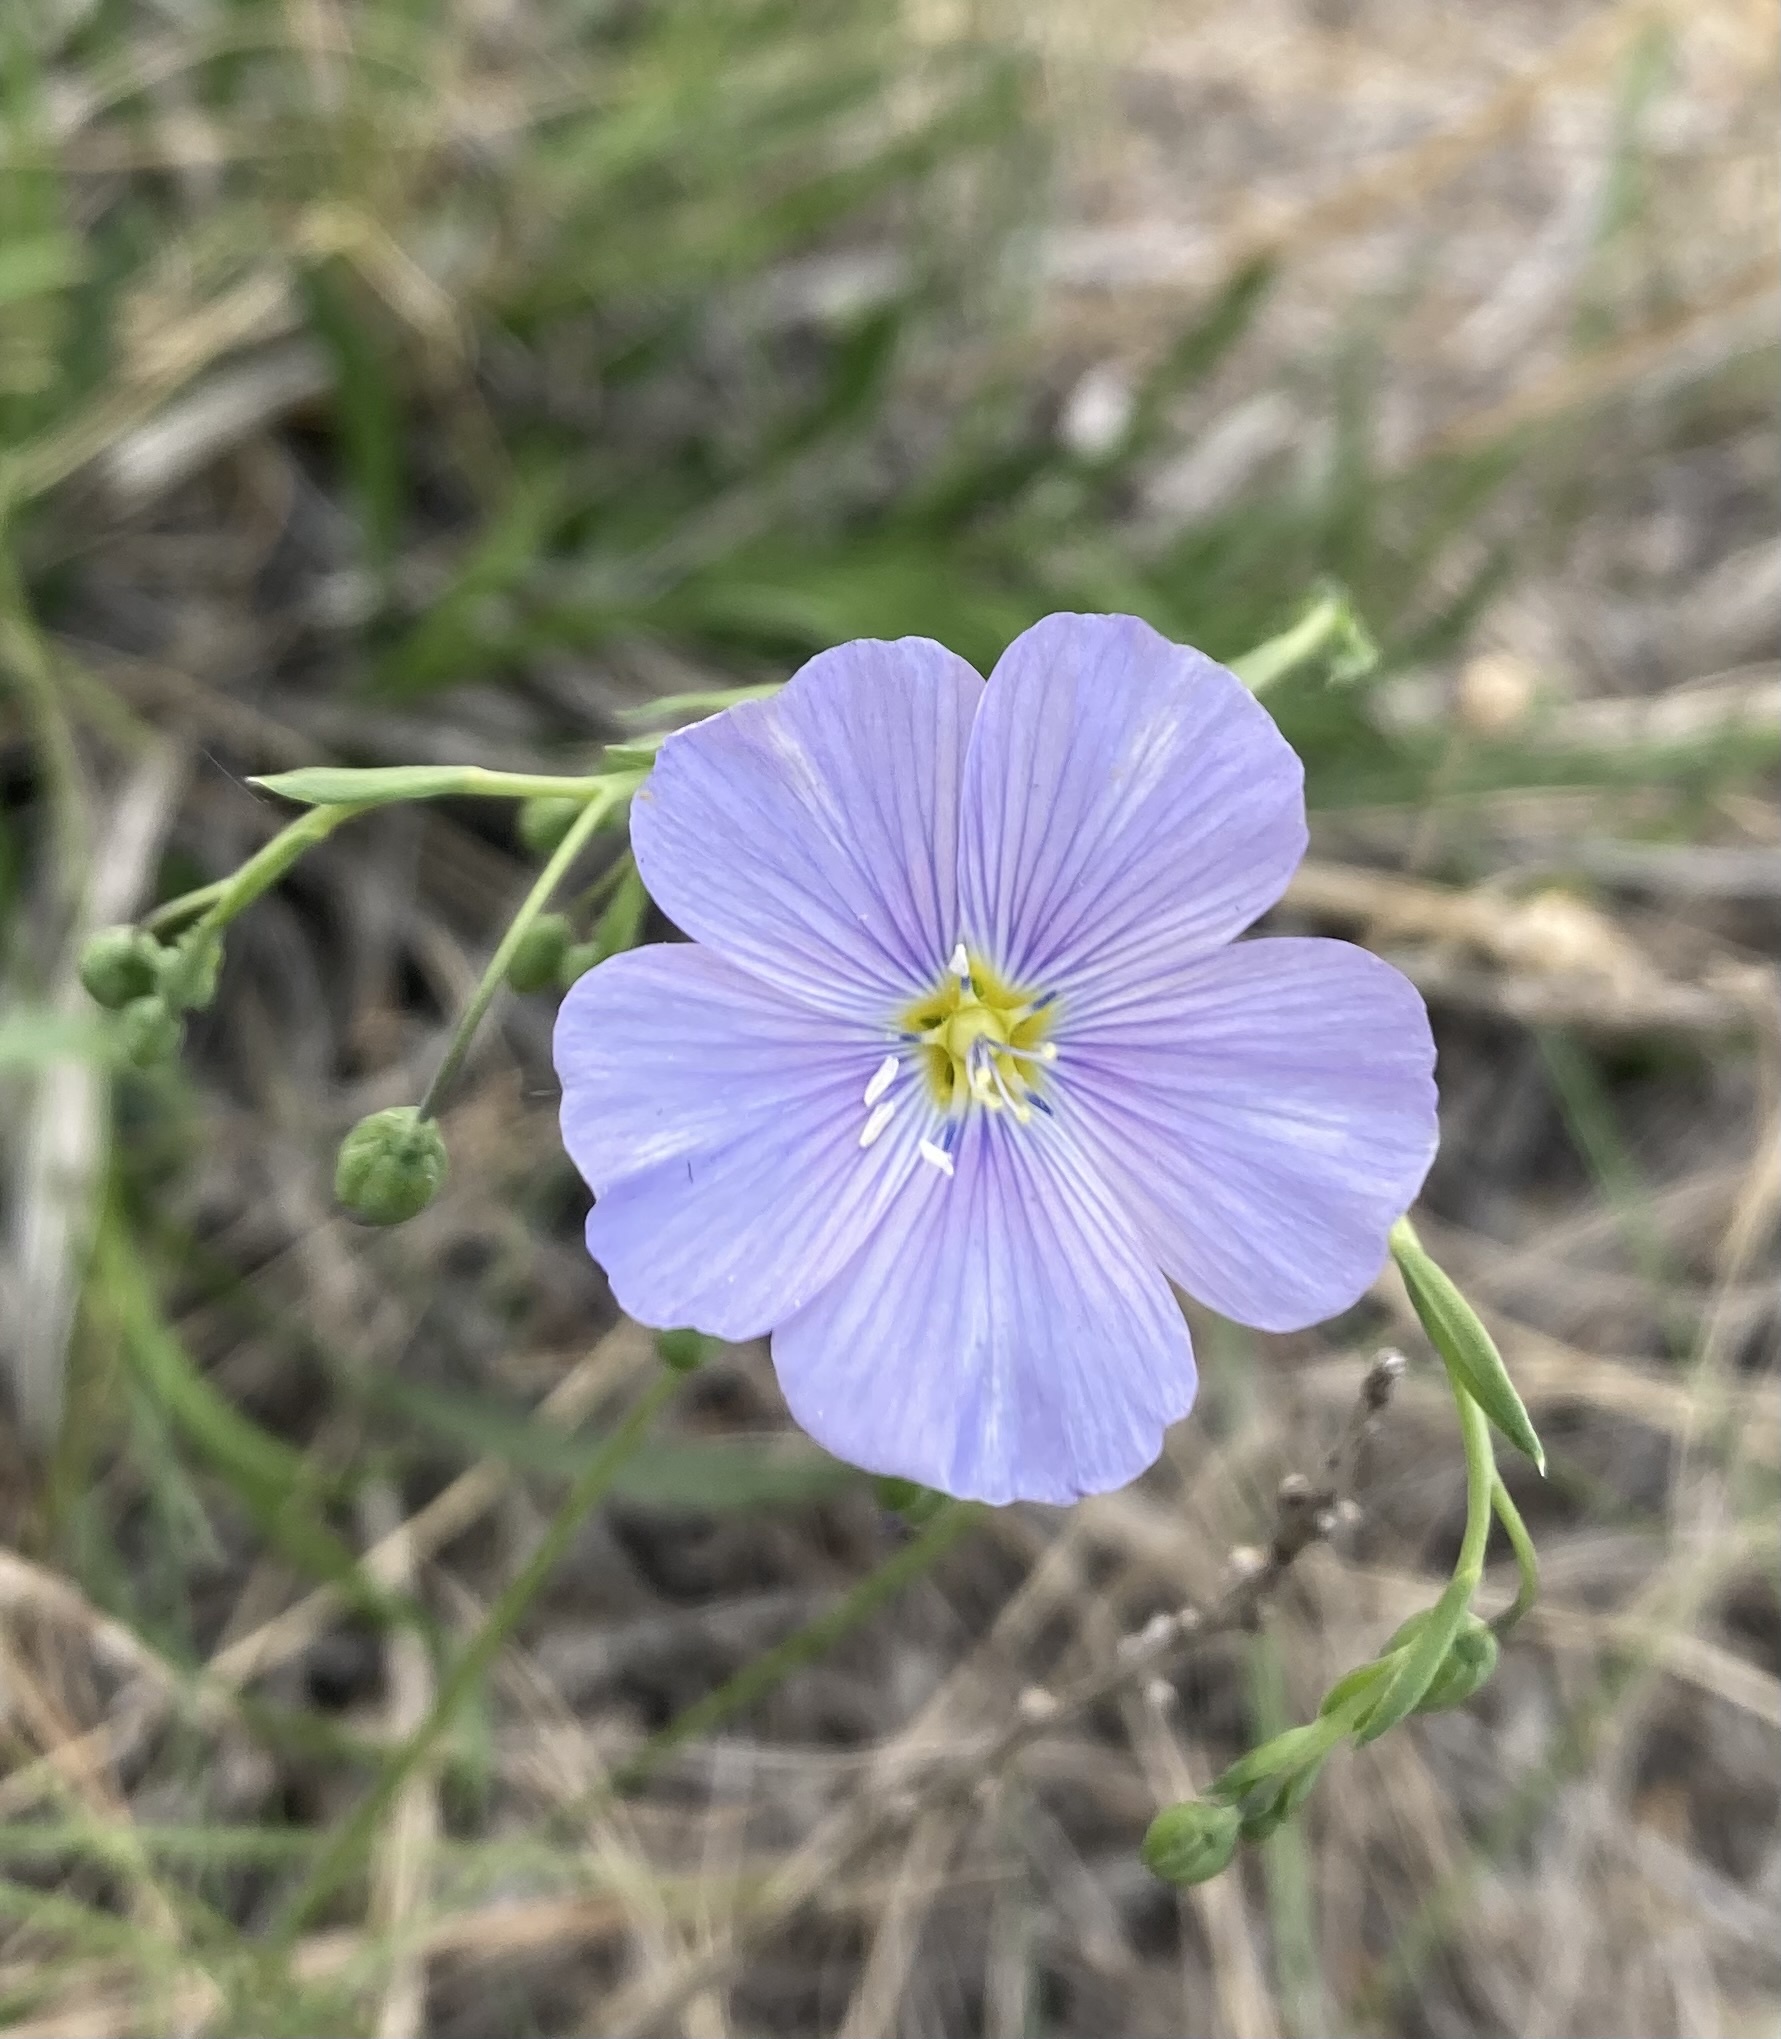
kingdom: Plantae
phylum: Tracheophyta
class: Magnoliopsida
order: Malpighiales
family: Linaceae
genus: Linum
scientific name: Linum lewisii
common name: Prairie flax
